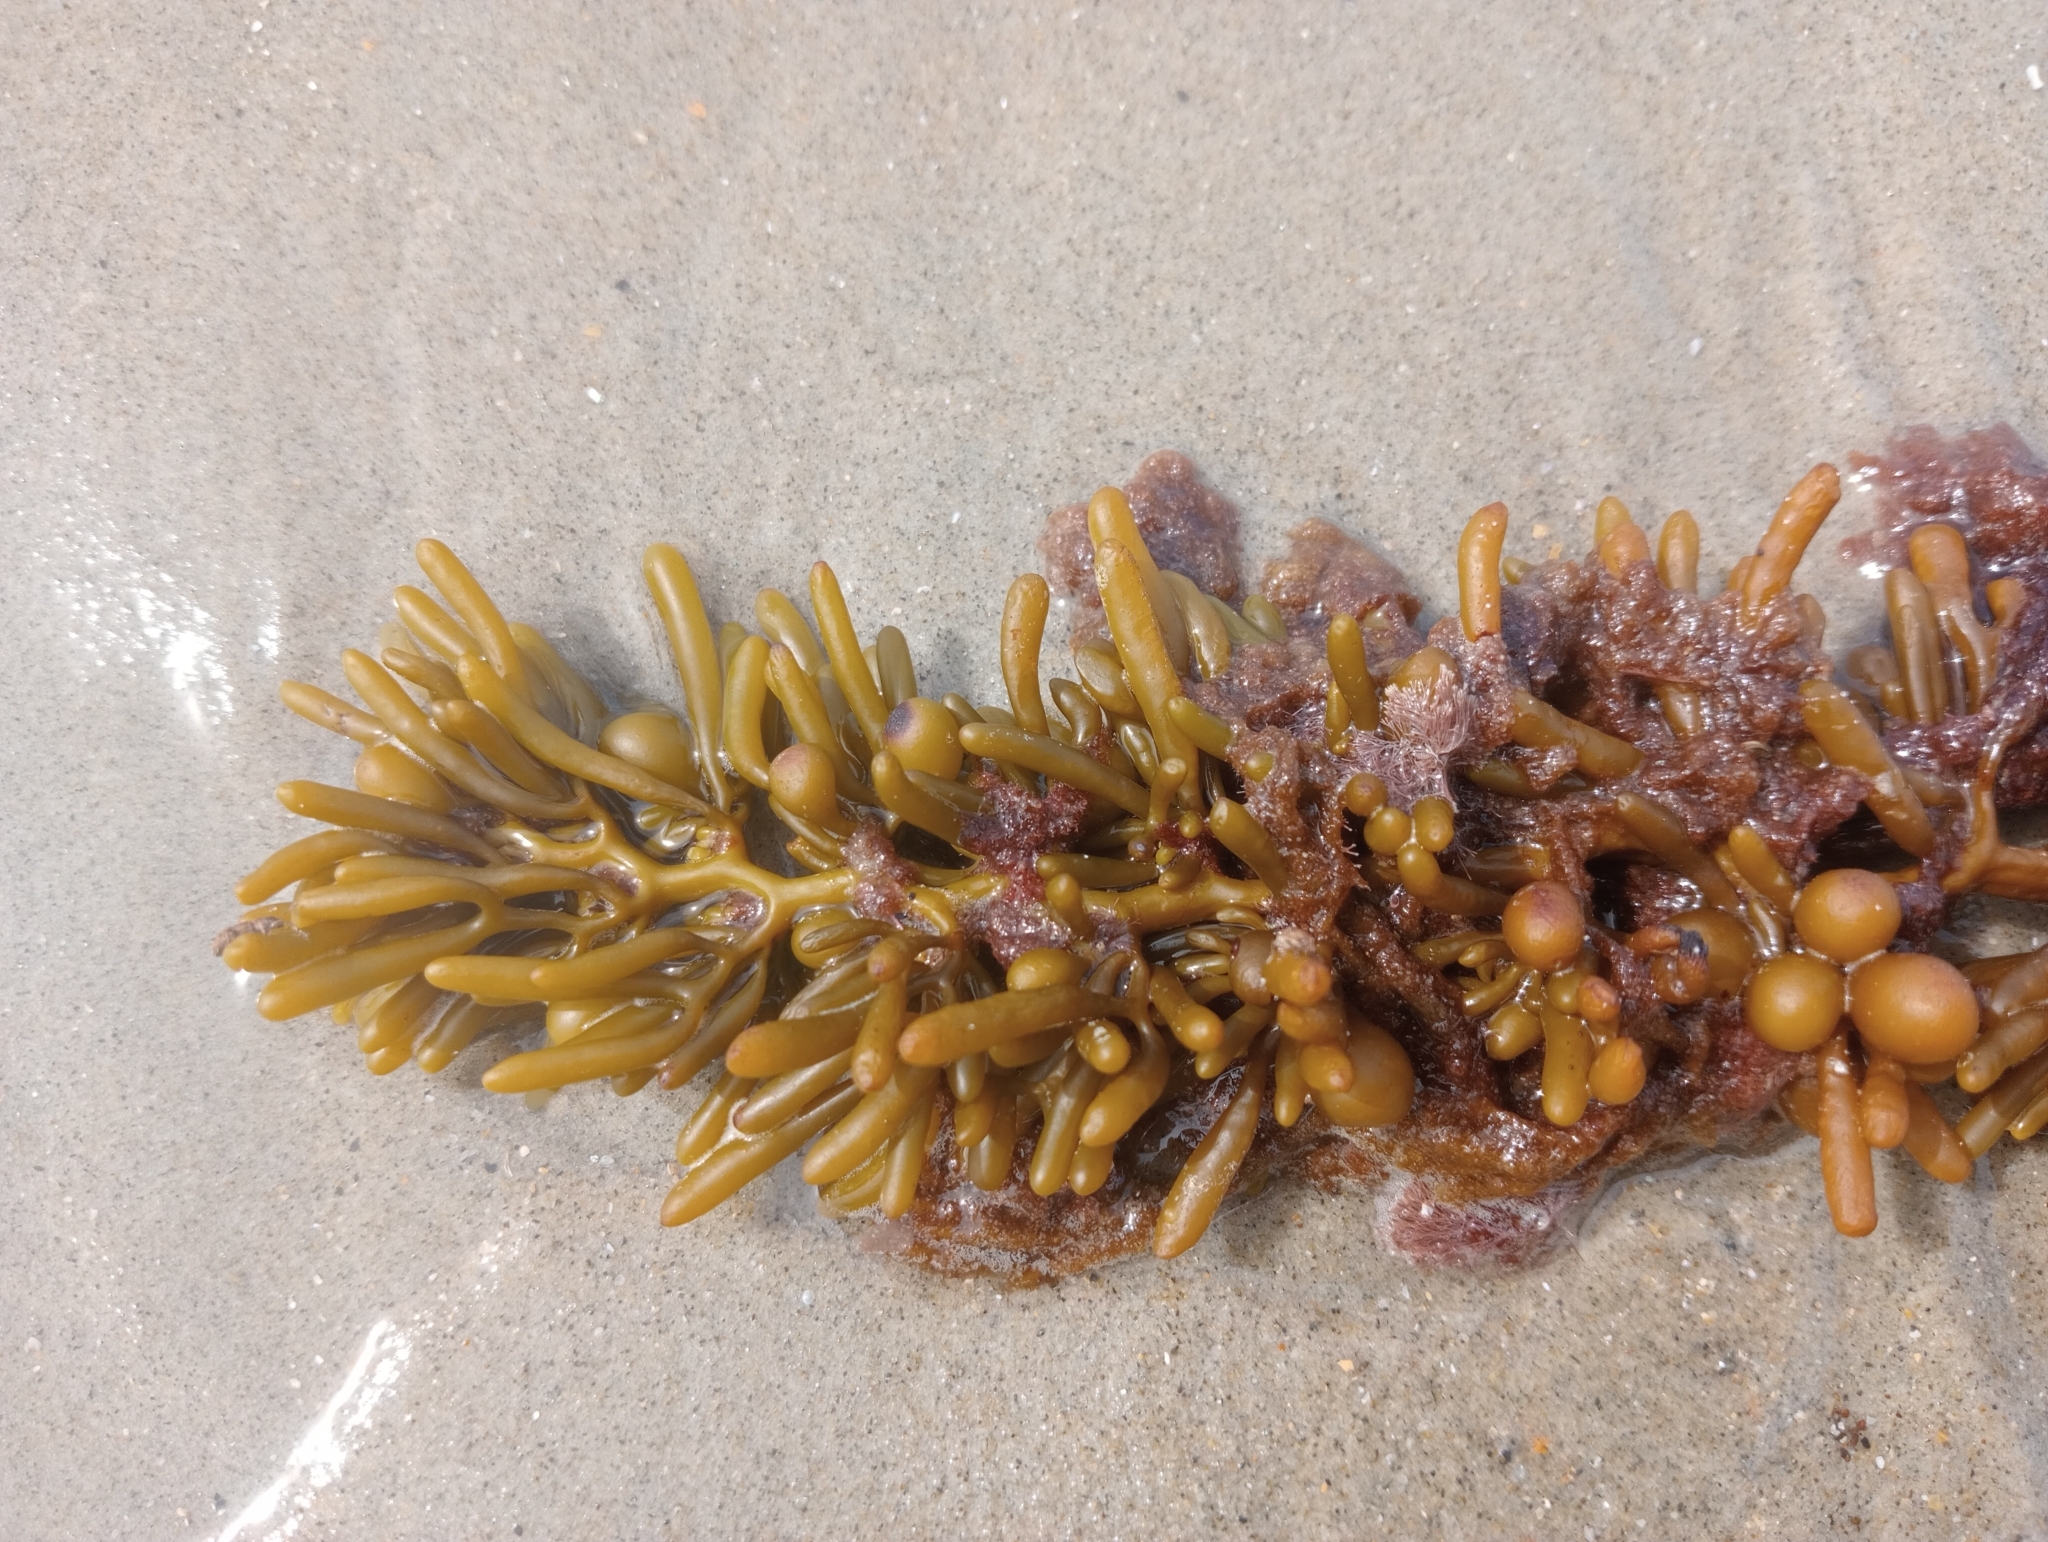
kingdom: Chromista
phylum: Ochrophyta
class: Phaeophyceae
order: Fucales
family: Sargassaceae
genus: Cystophora
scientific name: Cystophora torulosa
